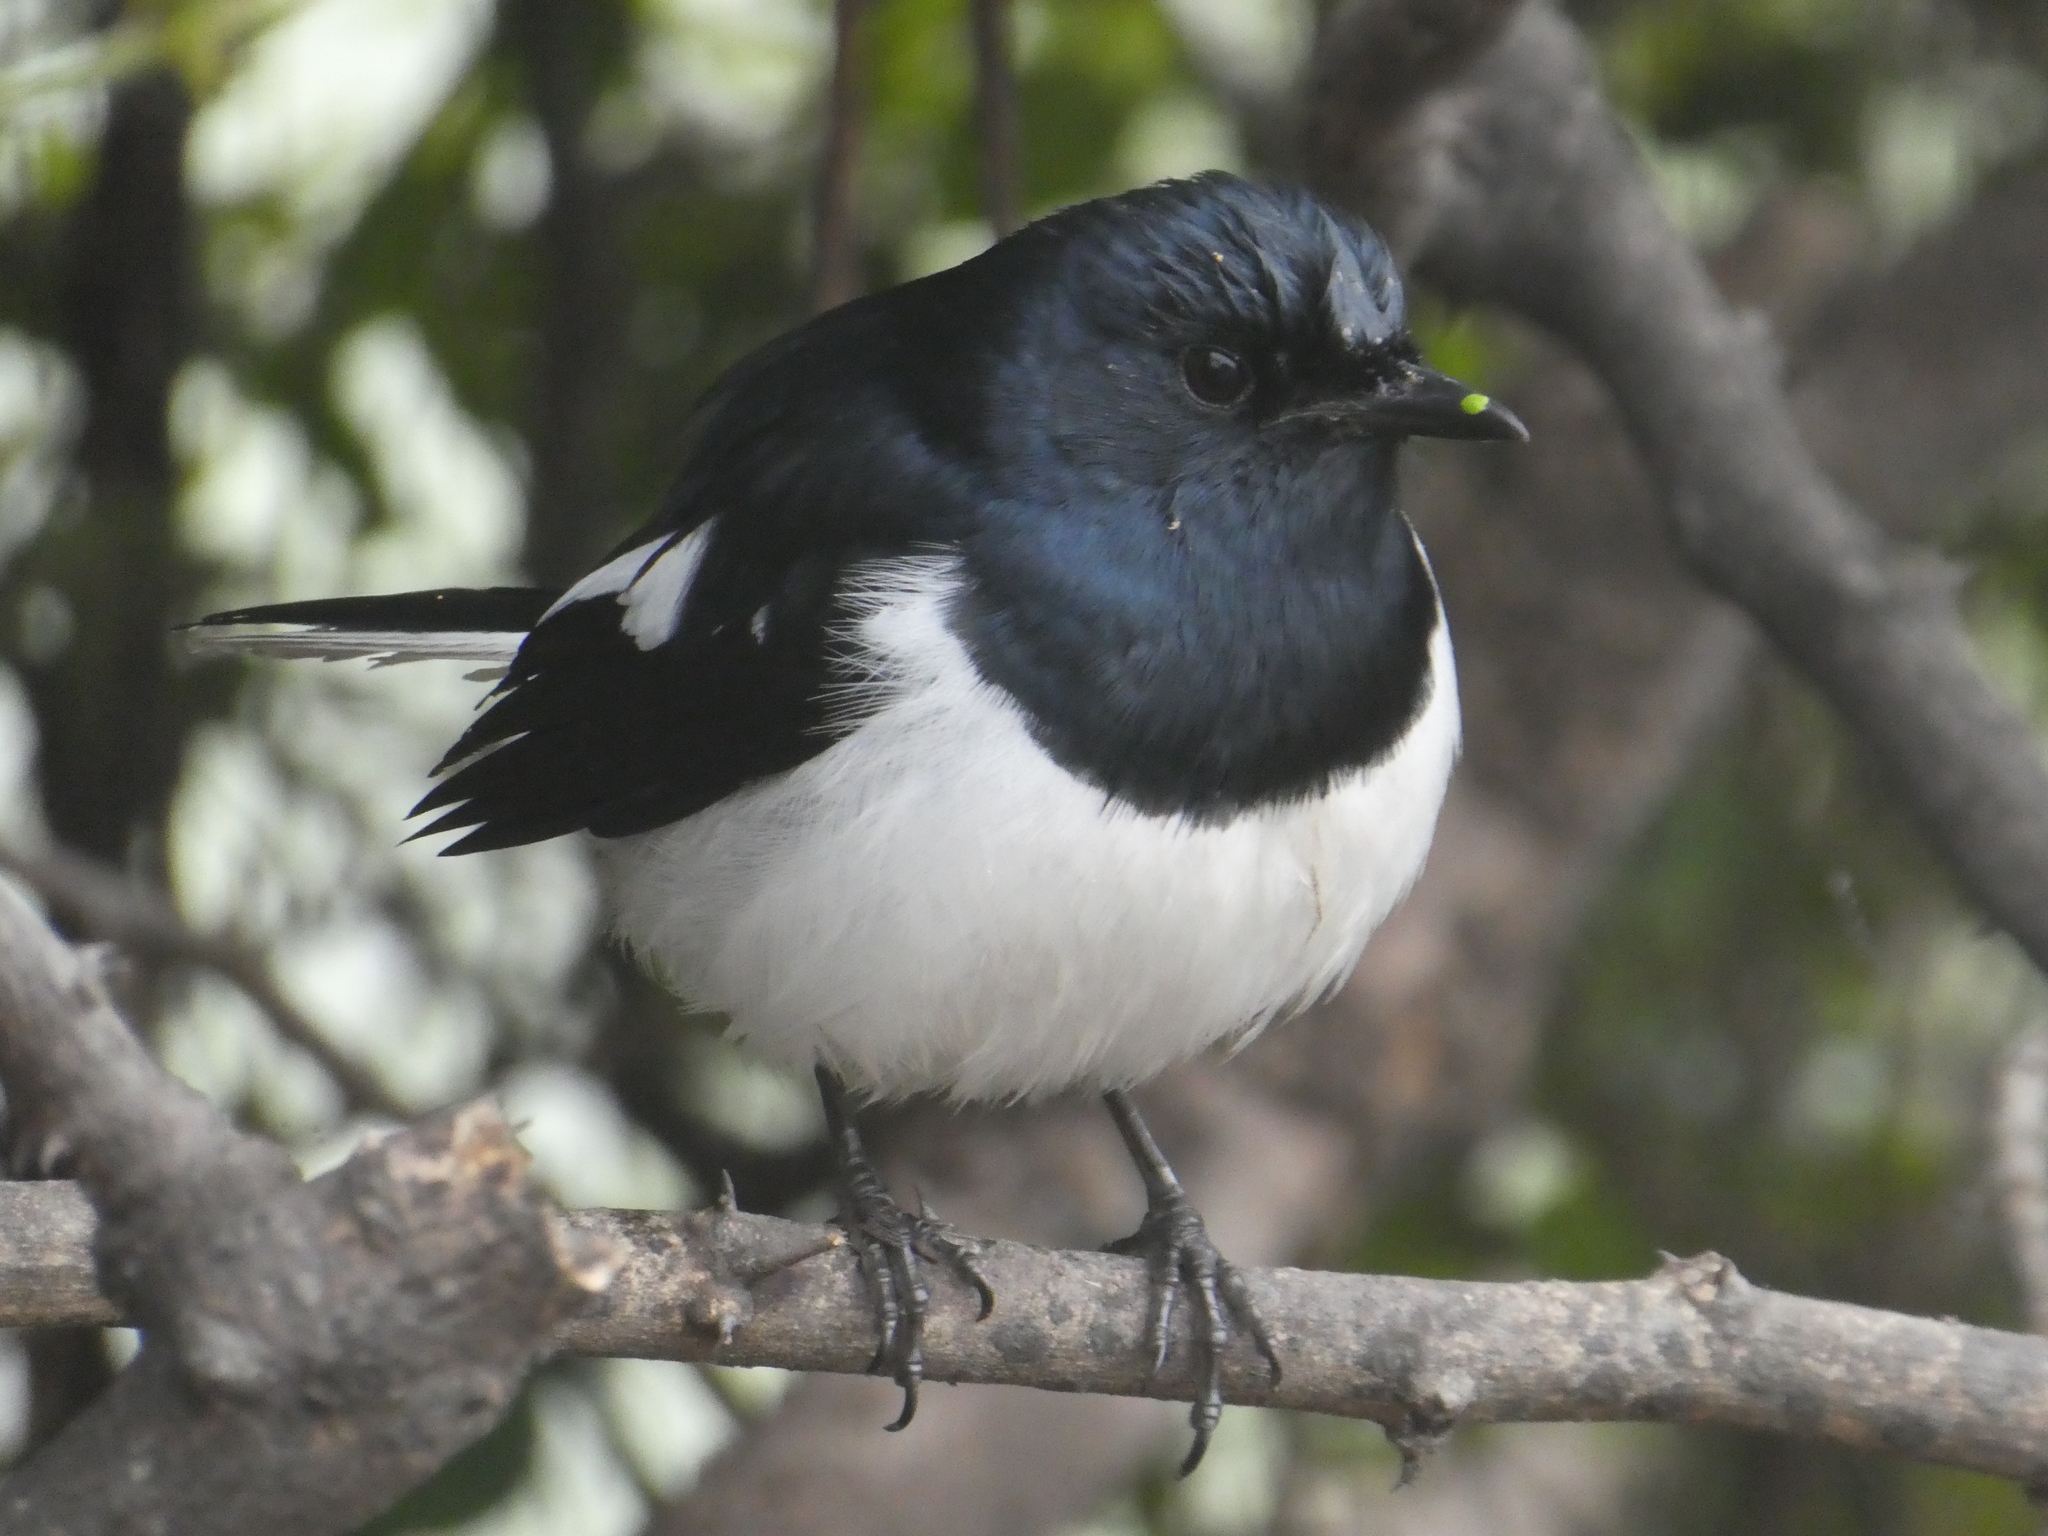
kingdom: Animalia
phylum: Chordata
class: Aves
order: Passeriformes
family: Muscicapidae
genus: Copsychus
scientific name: Copsychus saularis
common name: Oriental magpie-robin
